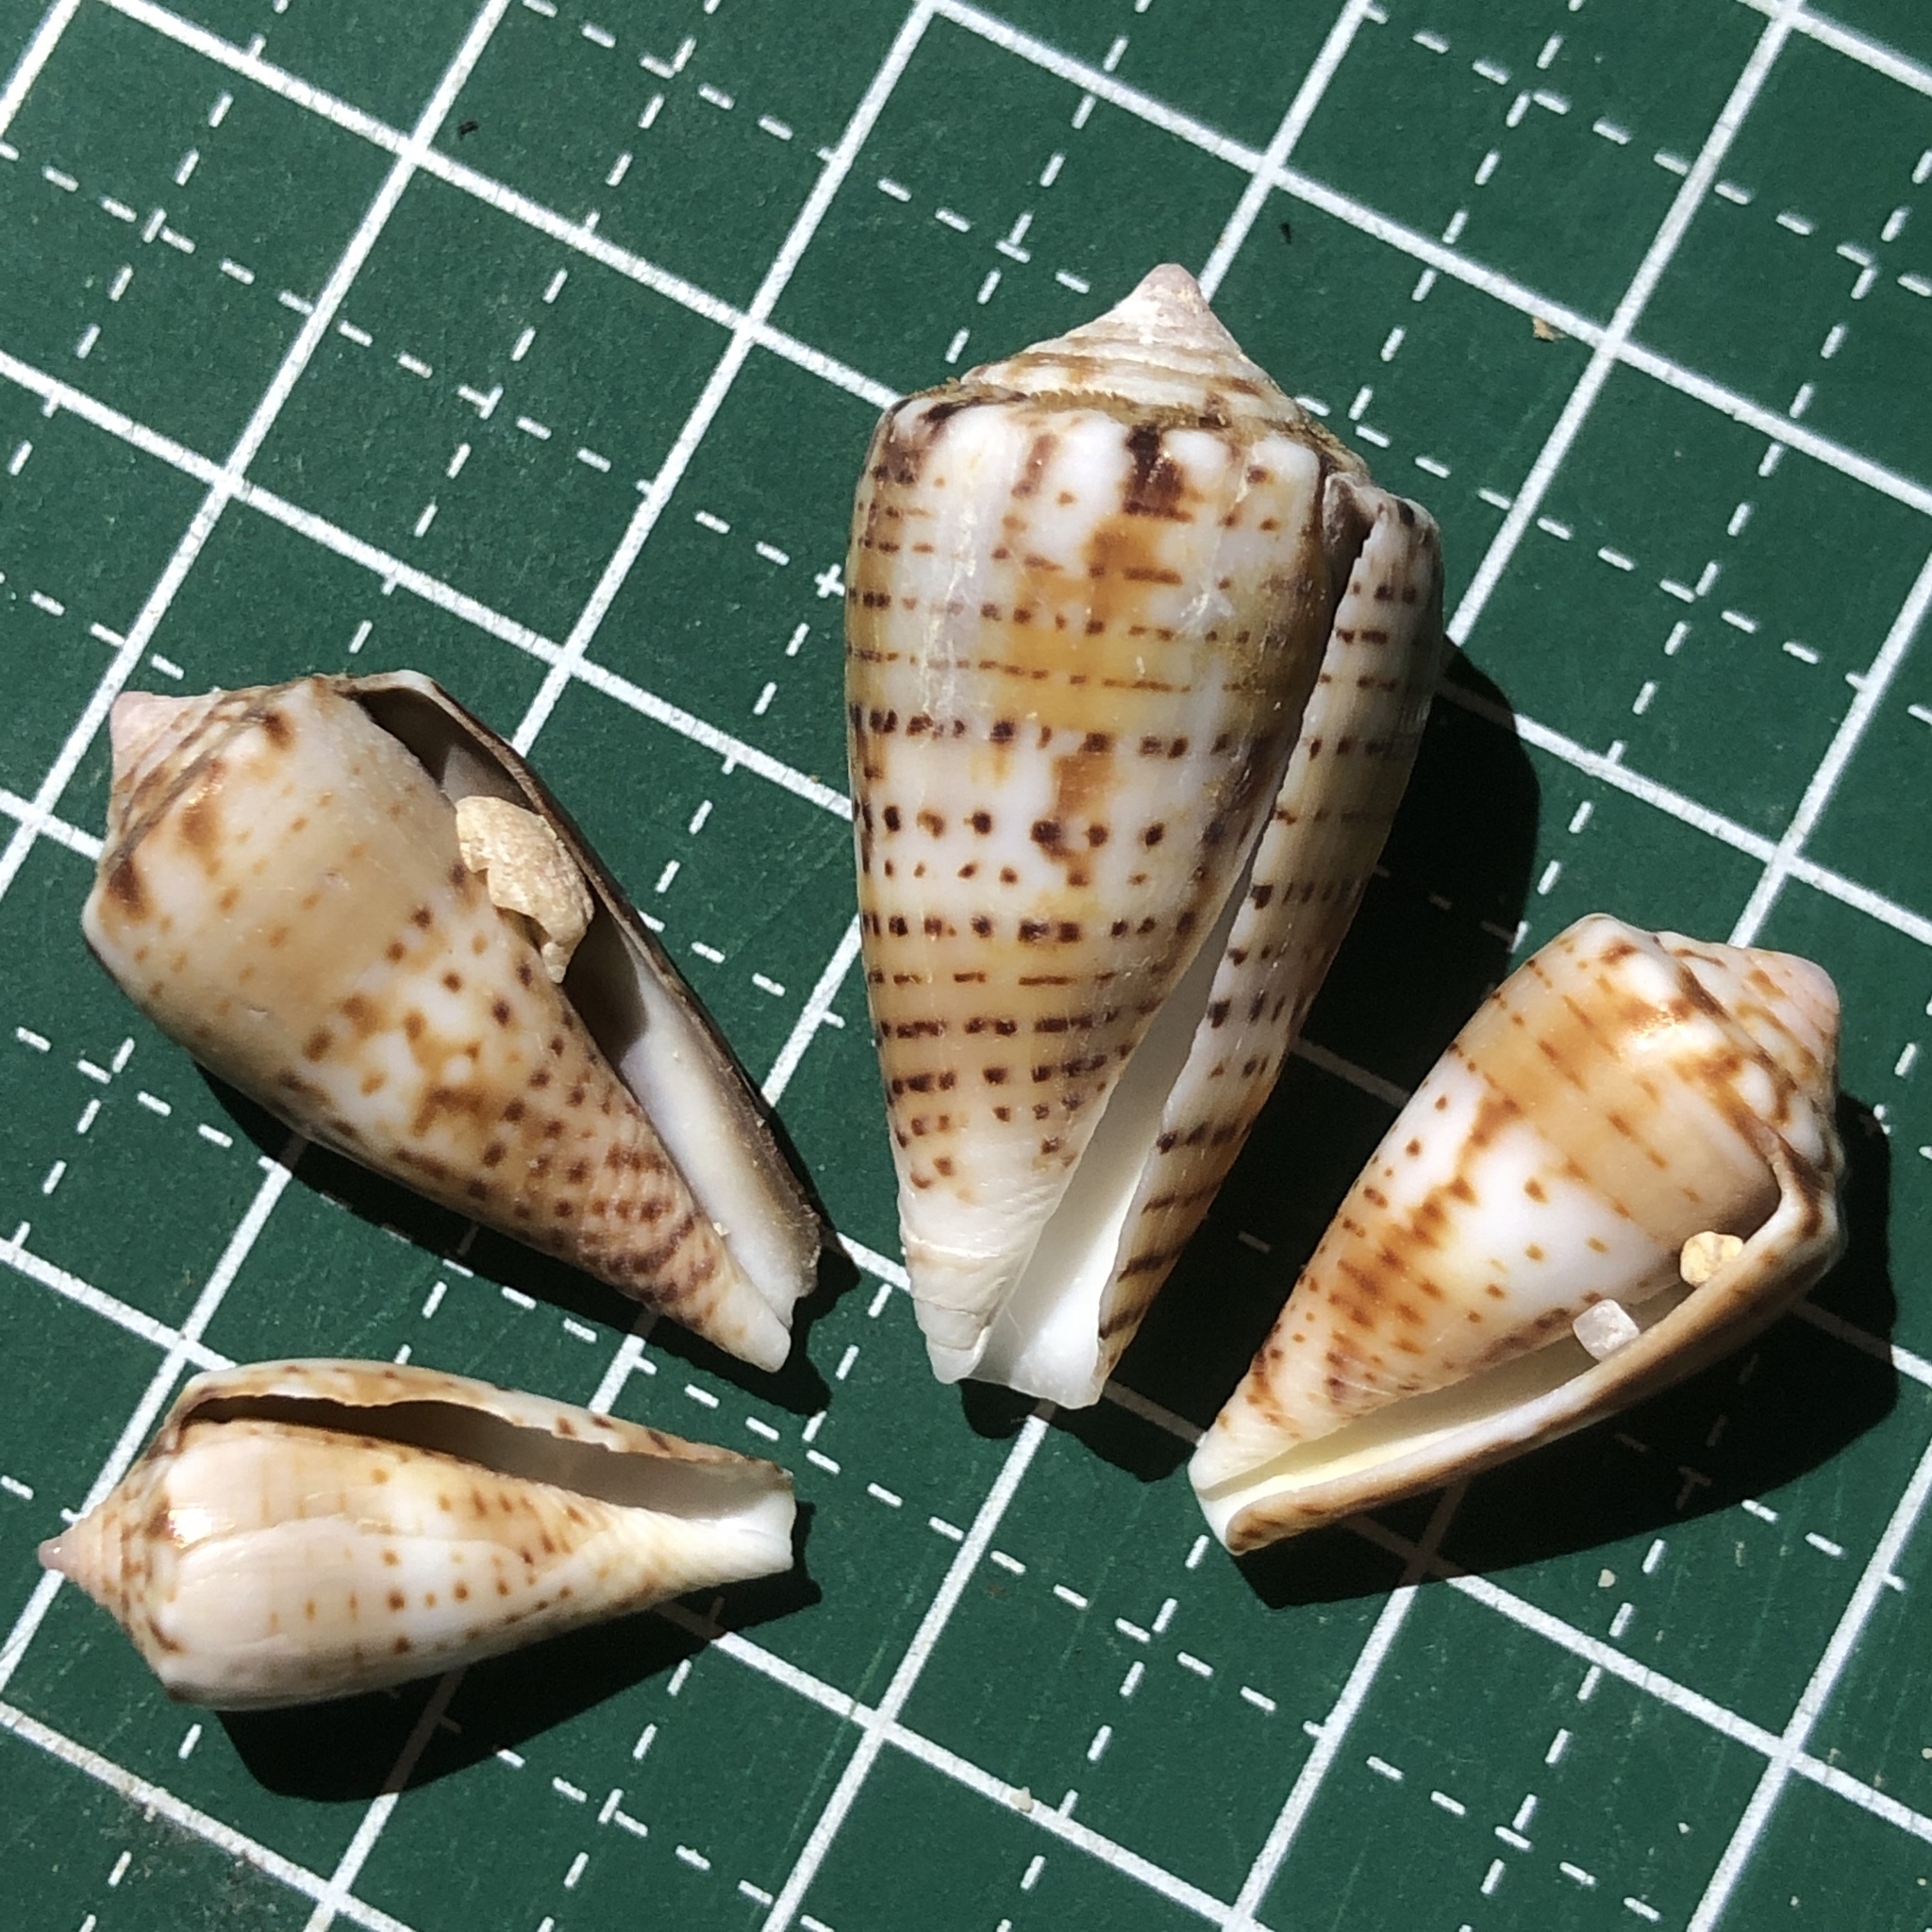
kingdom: Animalia
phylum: Mollusca
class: Gastropoda
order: Neogastropoda
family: Conidae
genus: Conus
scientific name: Conus boeticus
